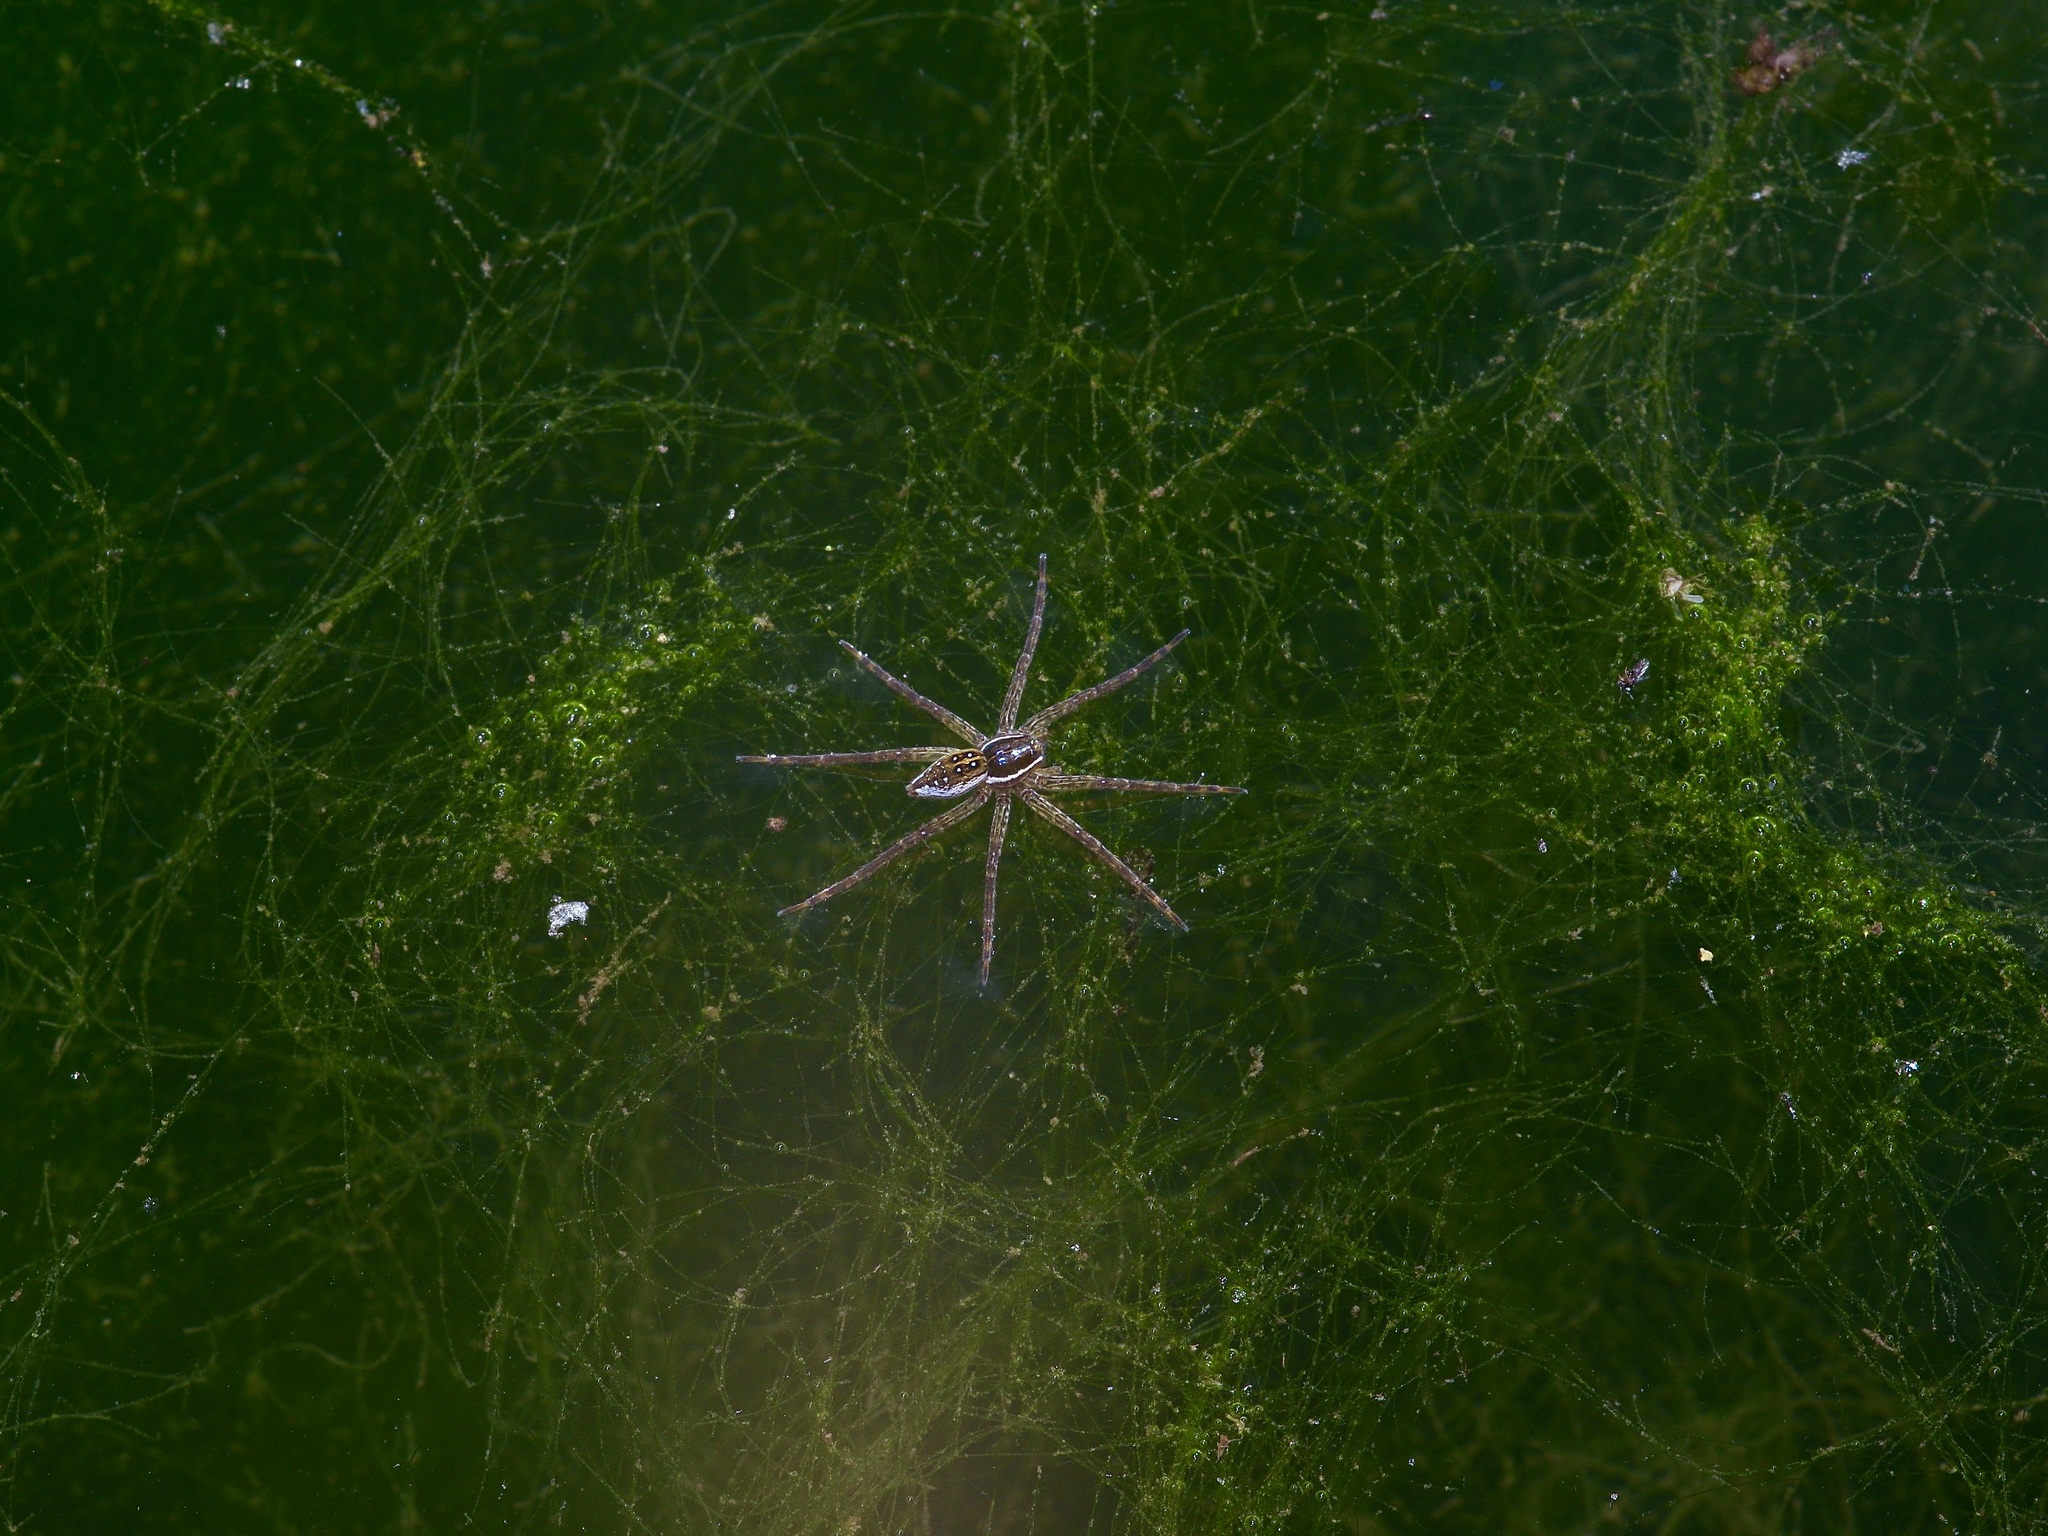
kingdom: Animalia
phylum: Arthropoda
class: Arachnida
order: Araneae
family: Pisauridae
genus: Dolomedes
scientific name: Dolomedes triton
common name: Six-spotted fishing spider
